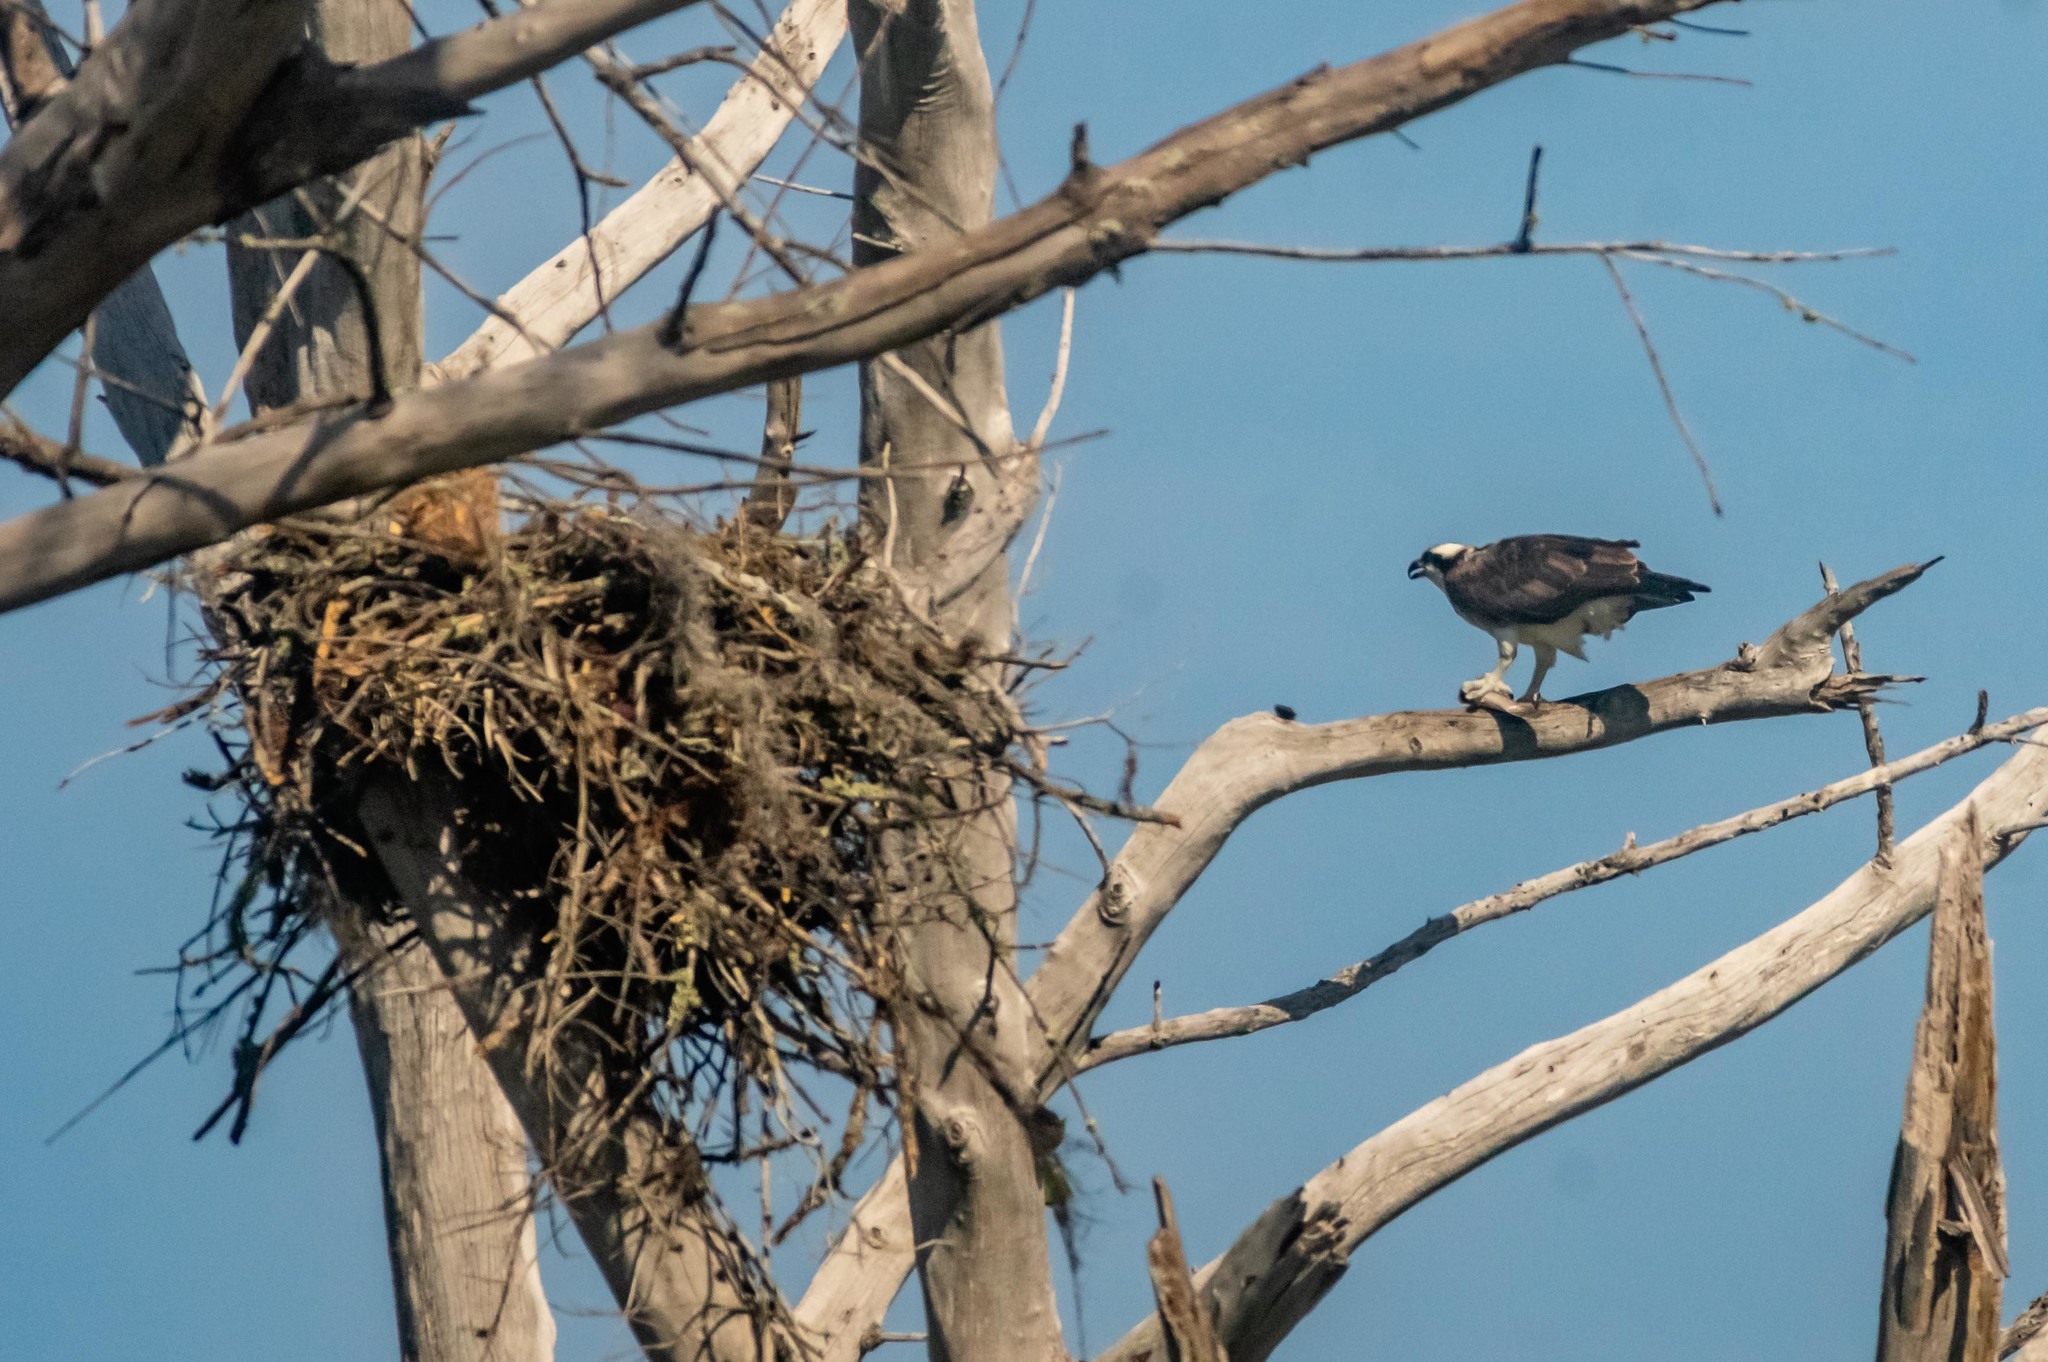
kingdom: Animalia
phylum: Chordata
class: Aves
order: Accipitriformes
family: Pandionidae
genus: Pandion
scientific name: Pandion haliaetus
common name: Osprey
